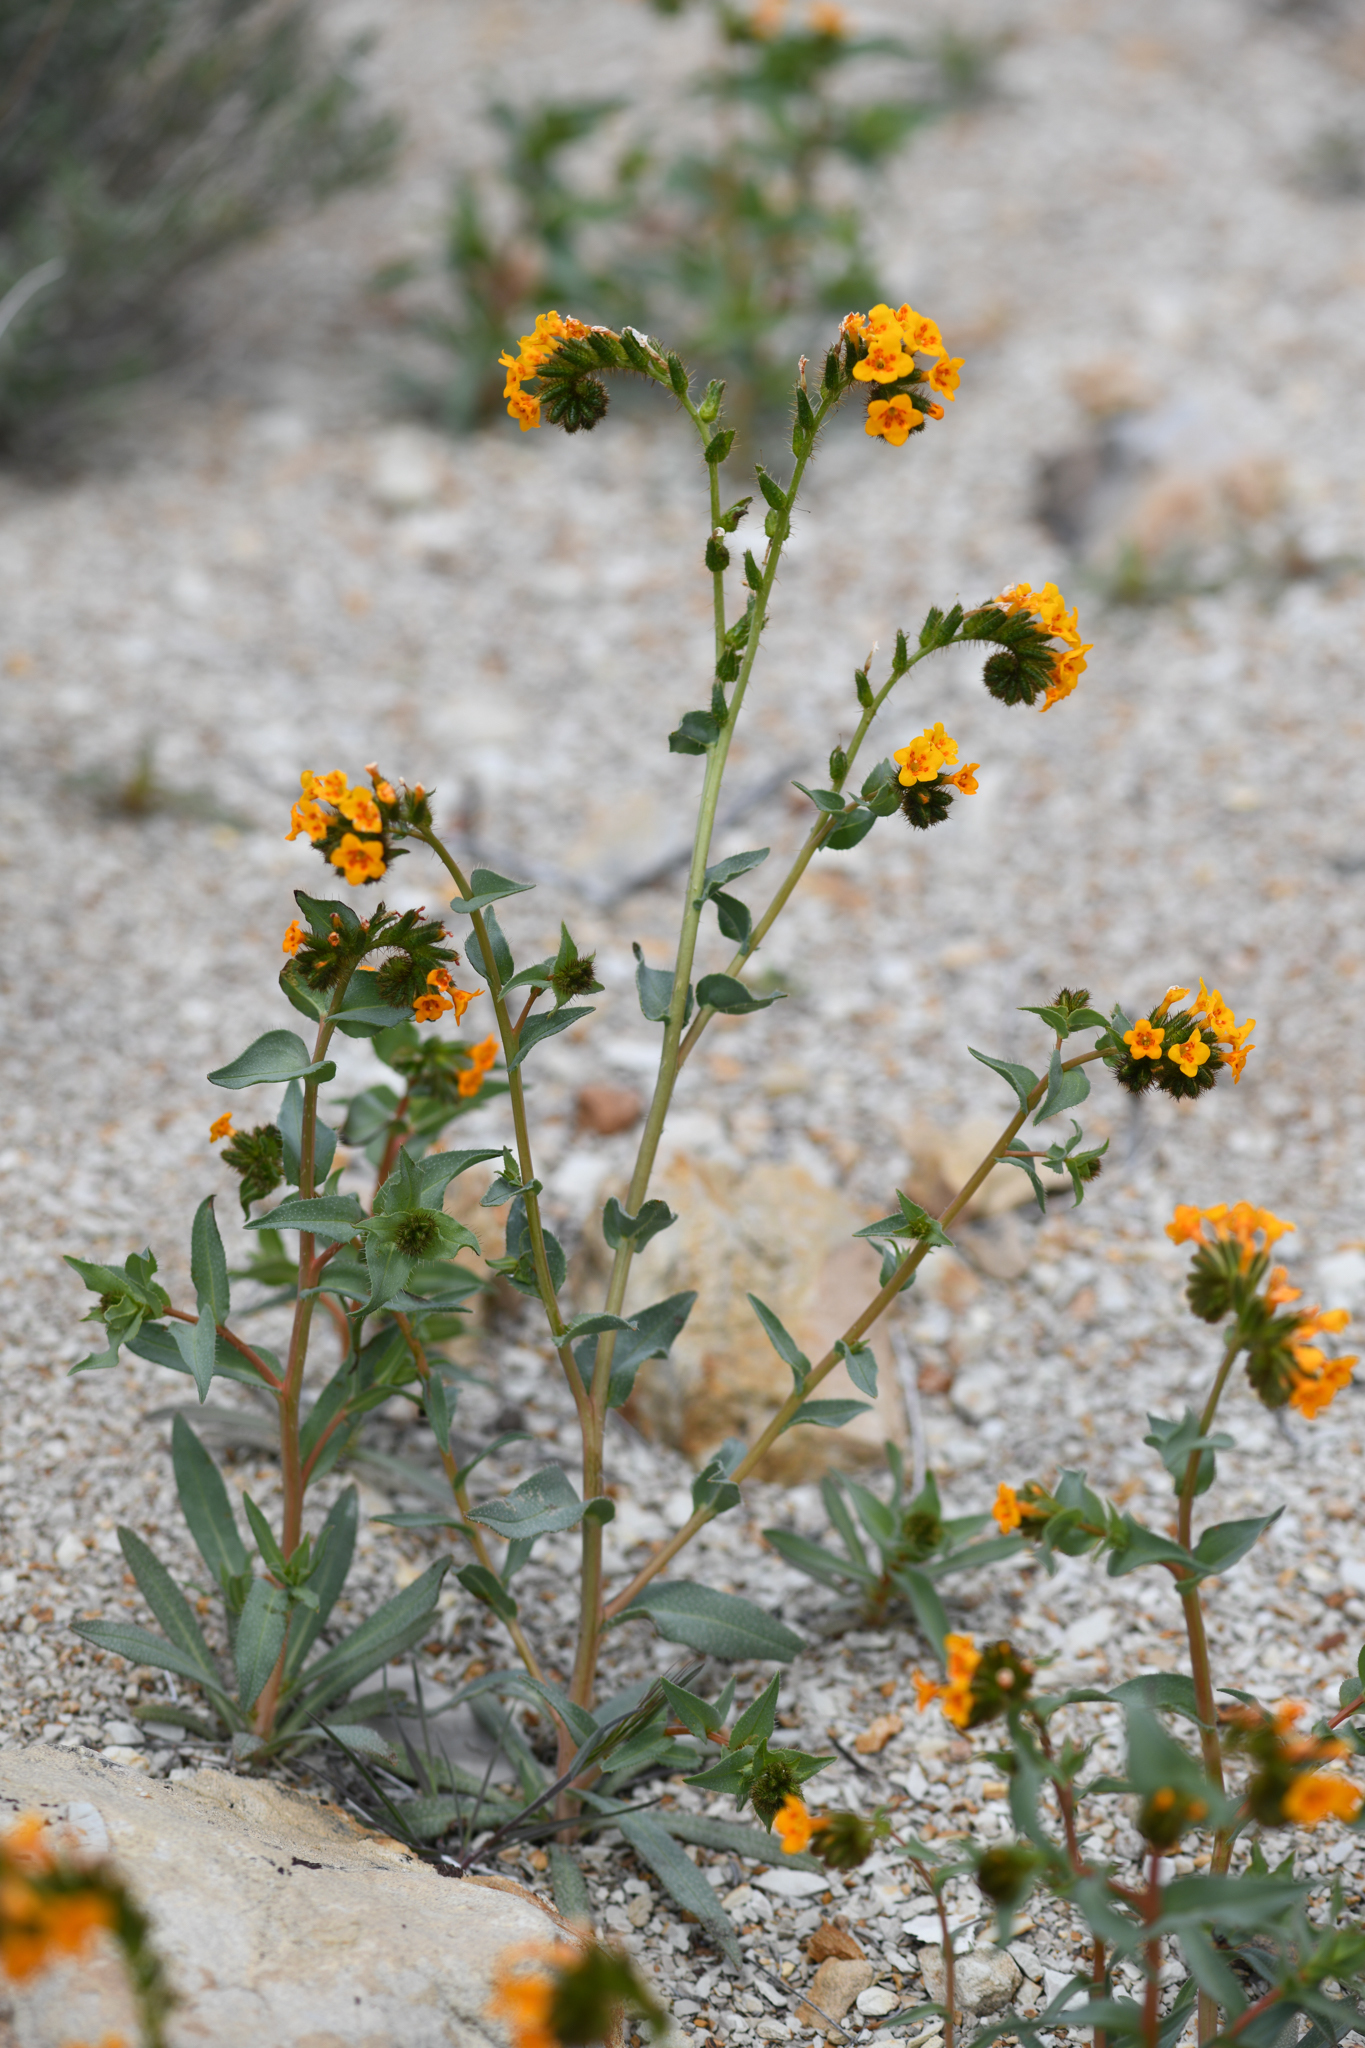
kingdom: Plantae
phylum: Tracheophyta
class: Magnoliopsida
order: Boraginales
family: Boraginaceae
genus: Amsinckia
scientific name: Amsinckia vernicosa
